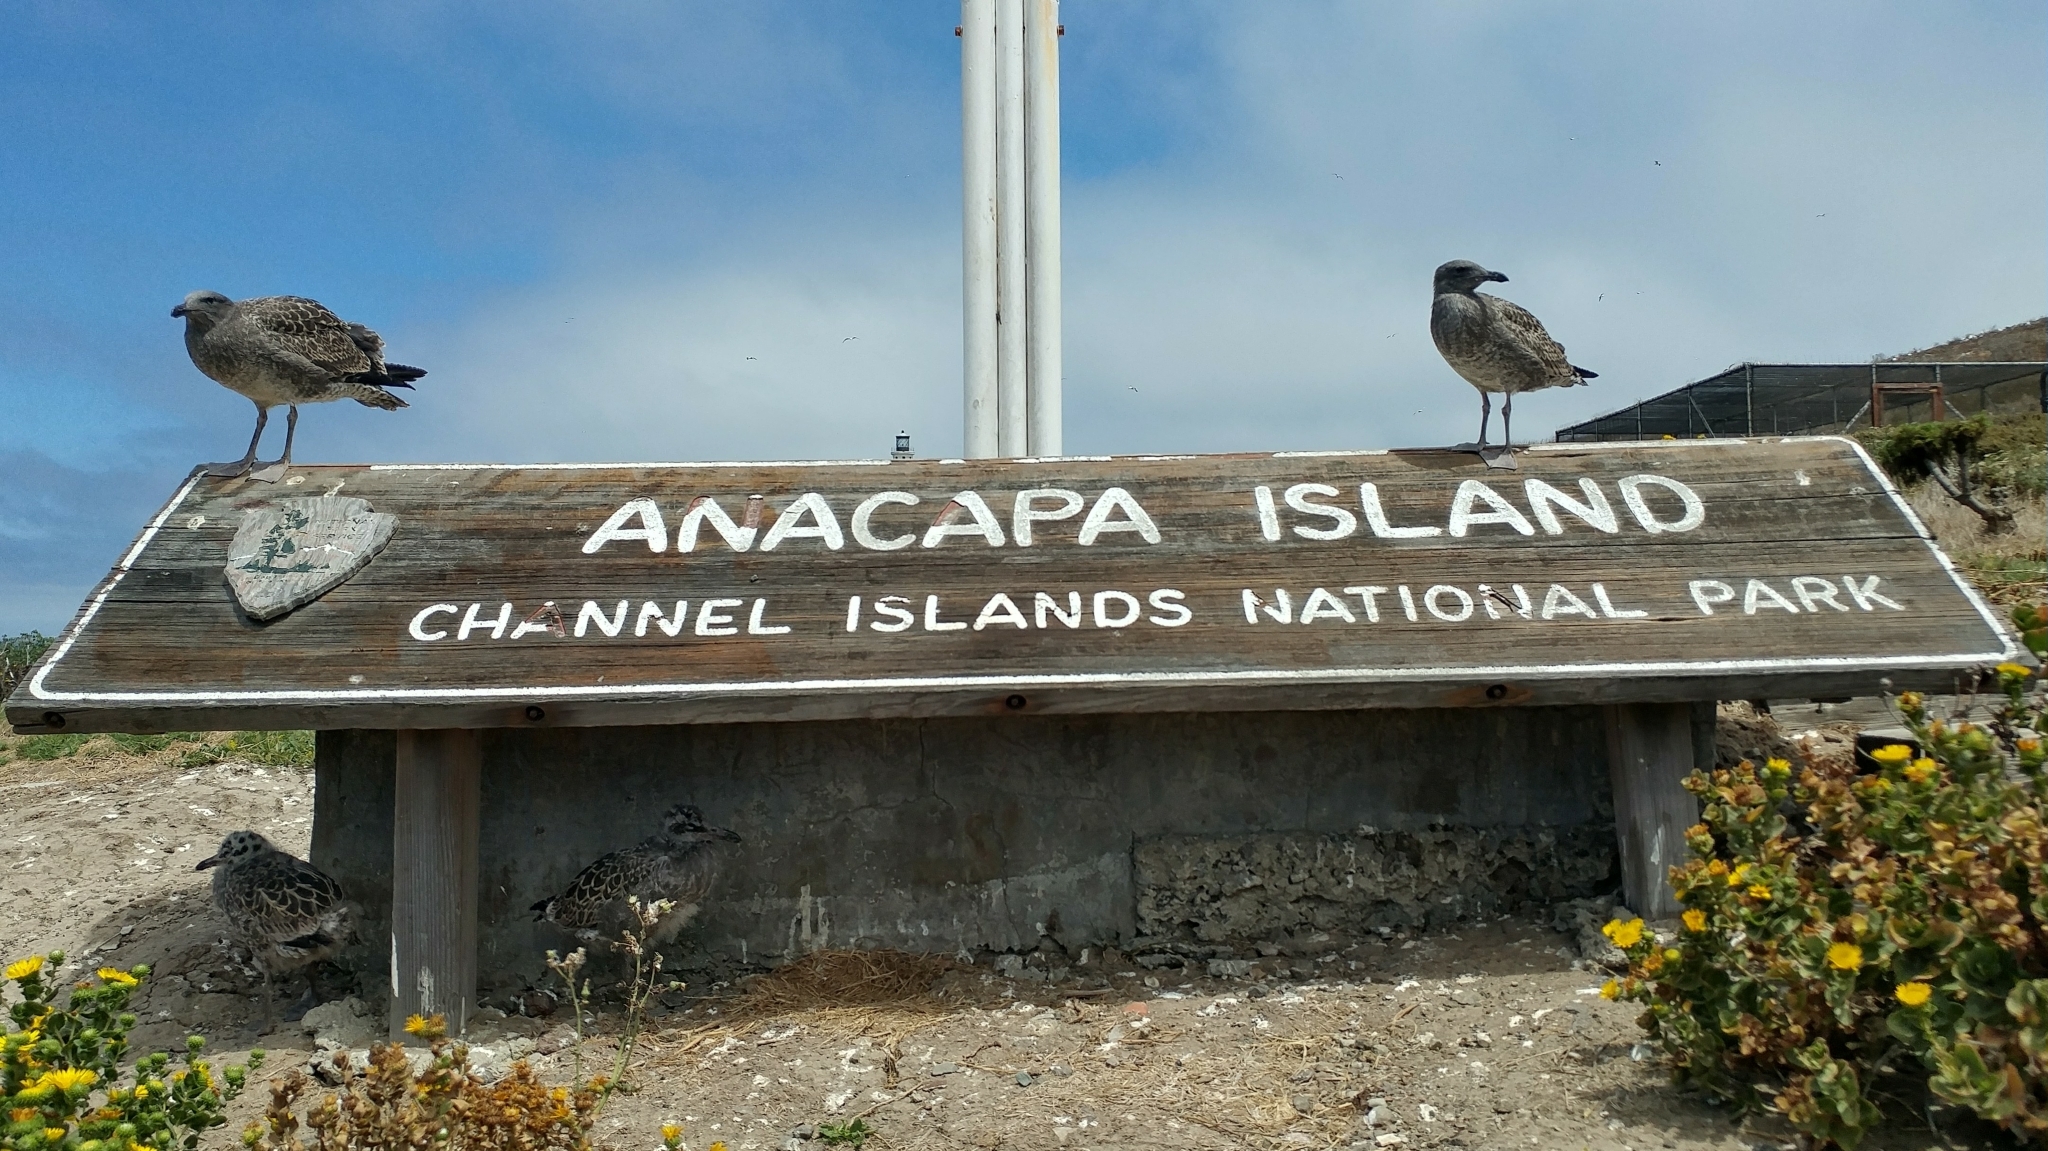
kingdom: Animalia
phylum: Chordata
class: Aves
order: Charadriiformes
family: Laridae
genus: Larus
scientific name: Larus occidentalis
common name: Western gull
